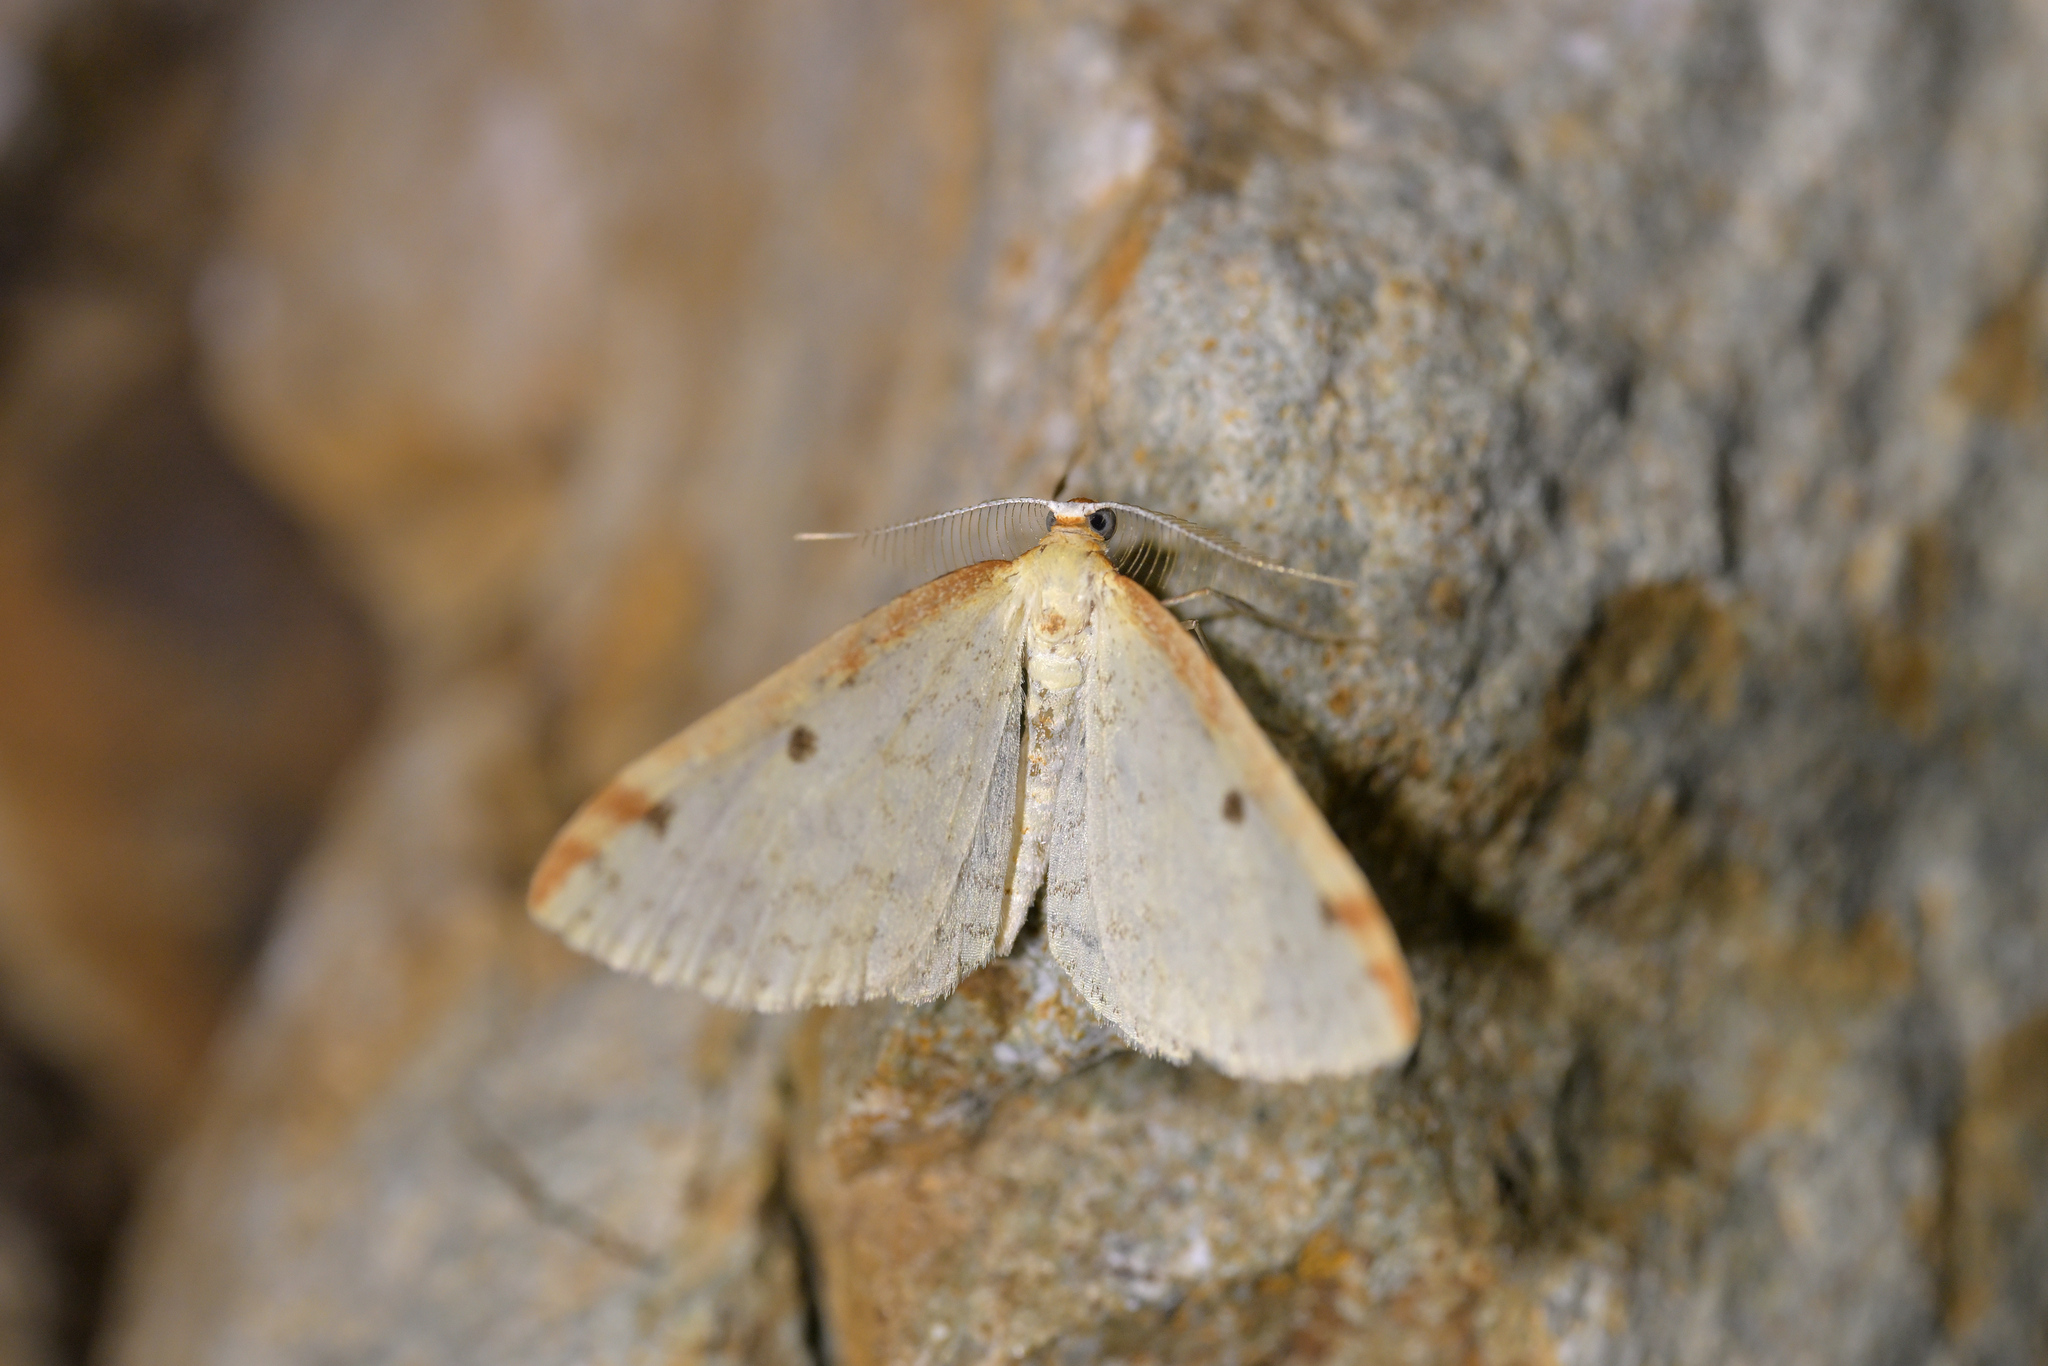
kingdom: Animalia
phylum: Arthropoda
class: Insecta
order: Lepidoptera
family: Geometridae
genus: Epiphryne
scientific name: Epiphryne undosata
